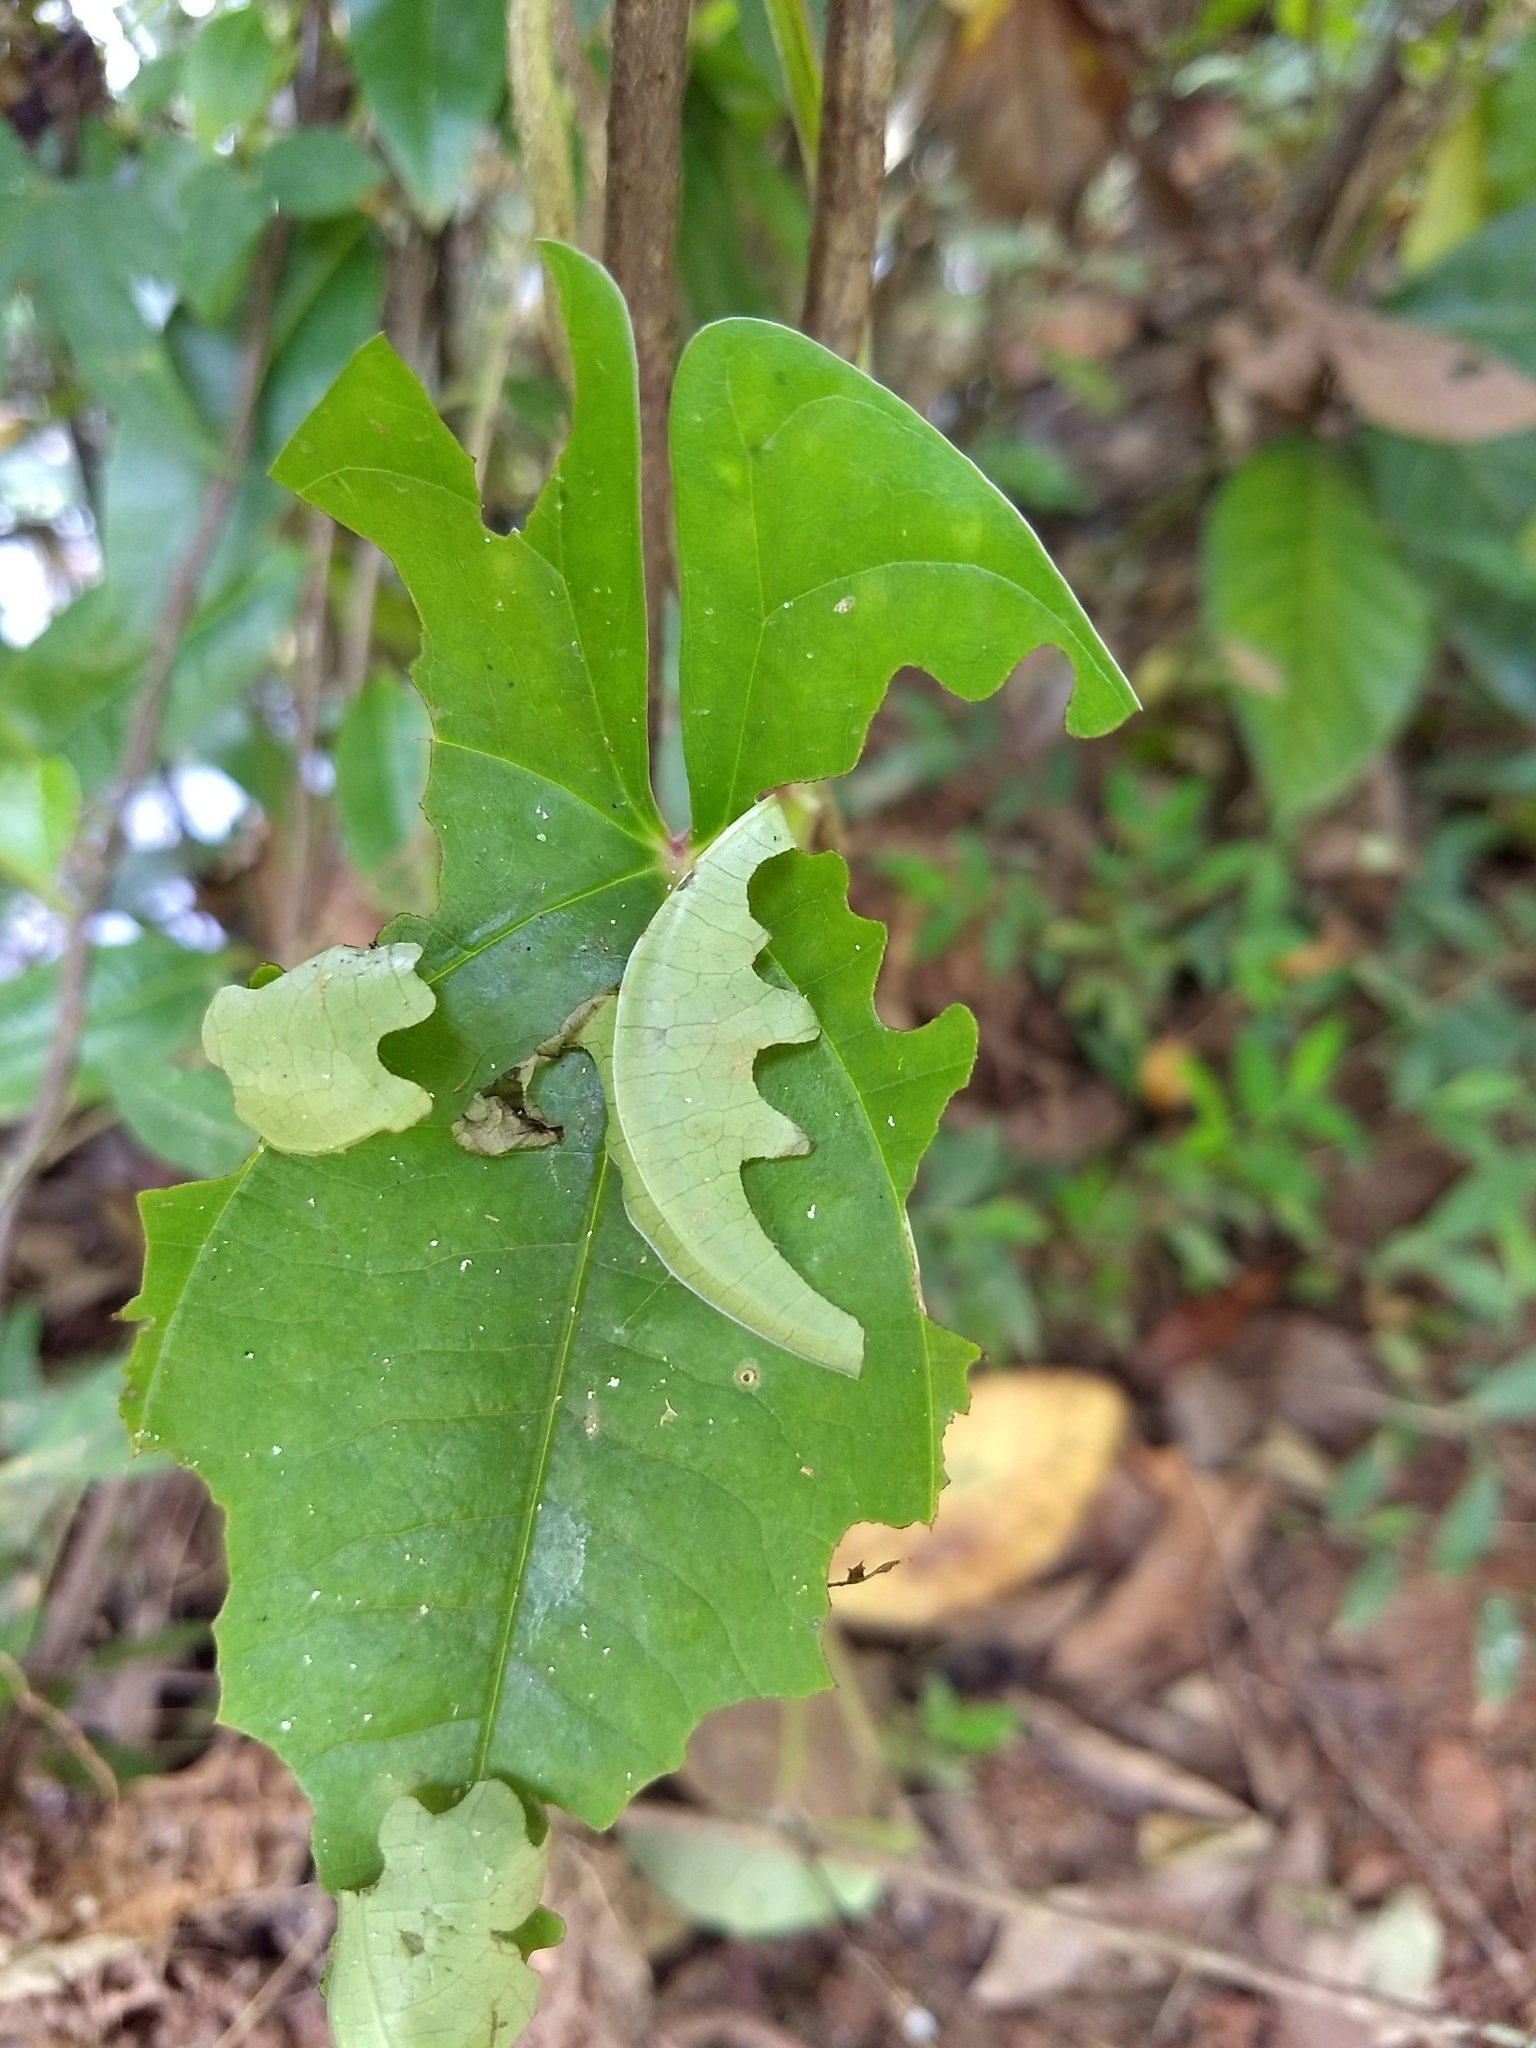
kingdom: Animalia
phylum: Arthropoda
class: Insecta
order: Lepidoptera
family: Hesperiidae
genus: Tagiades
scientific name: Tagiades litigiosa
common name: Water snow flat
